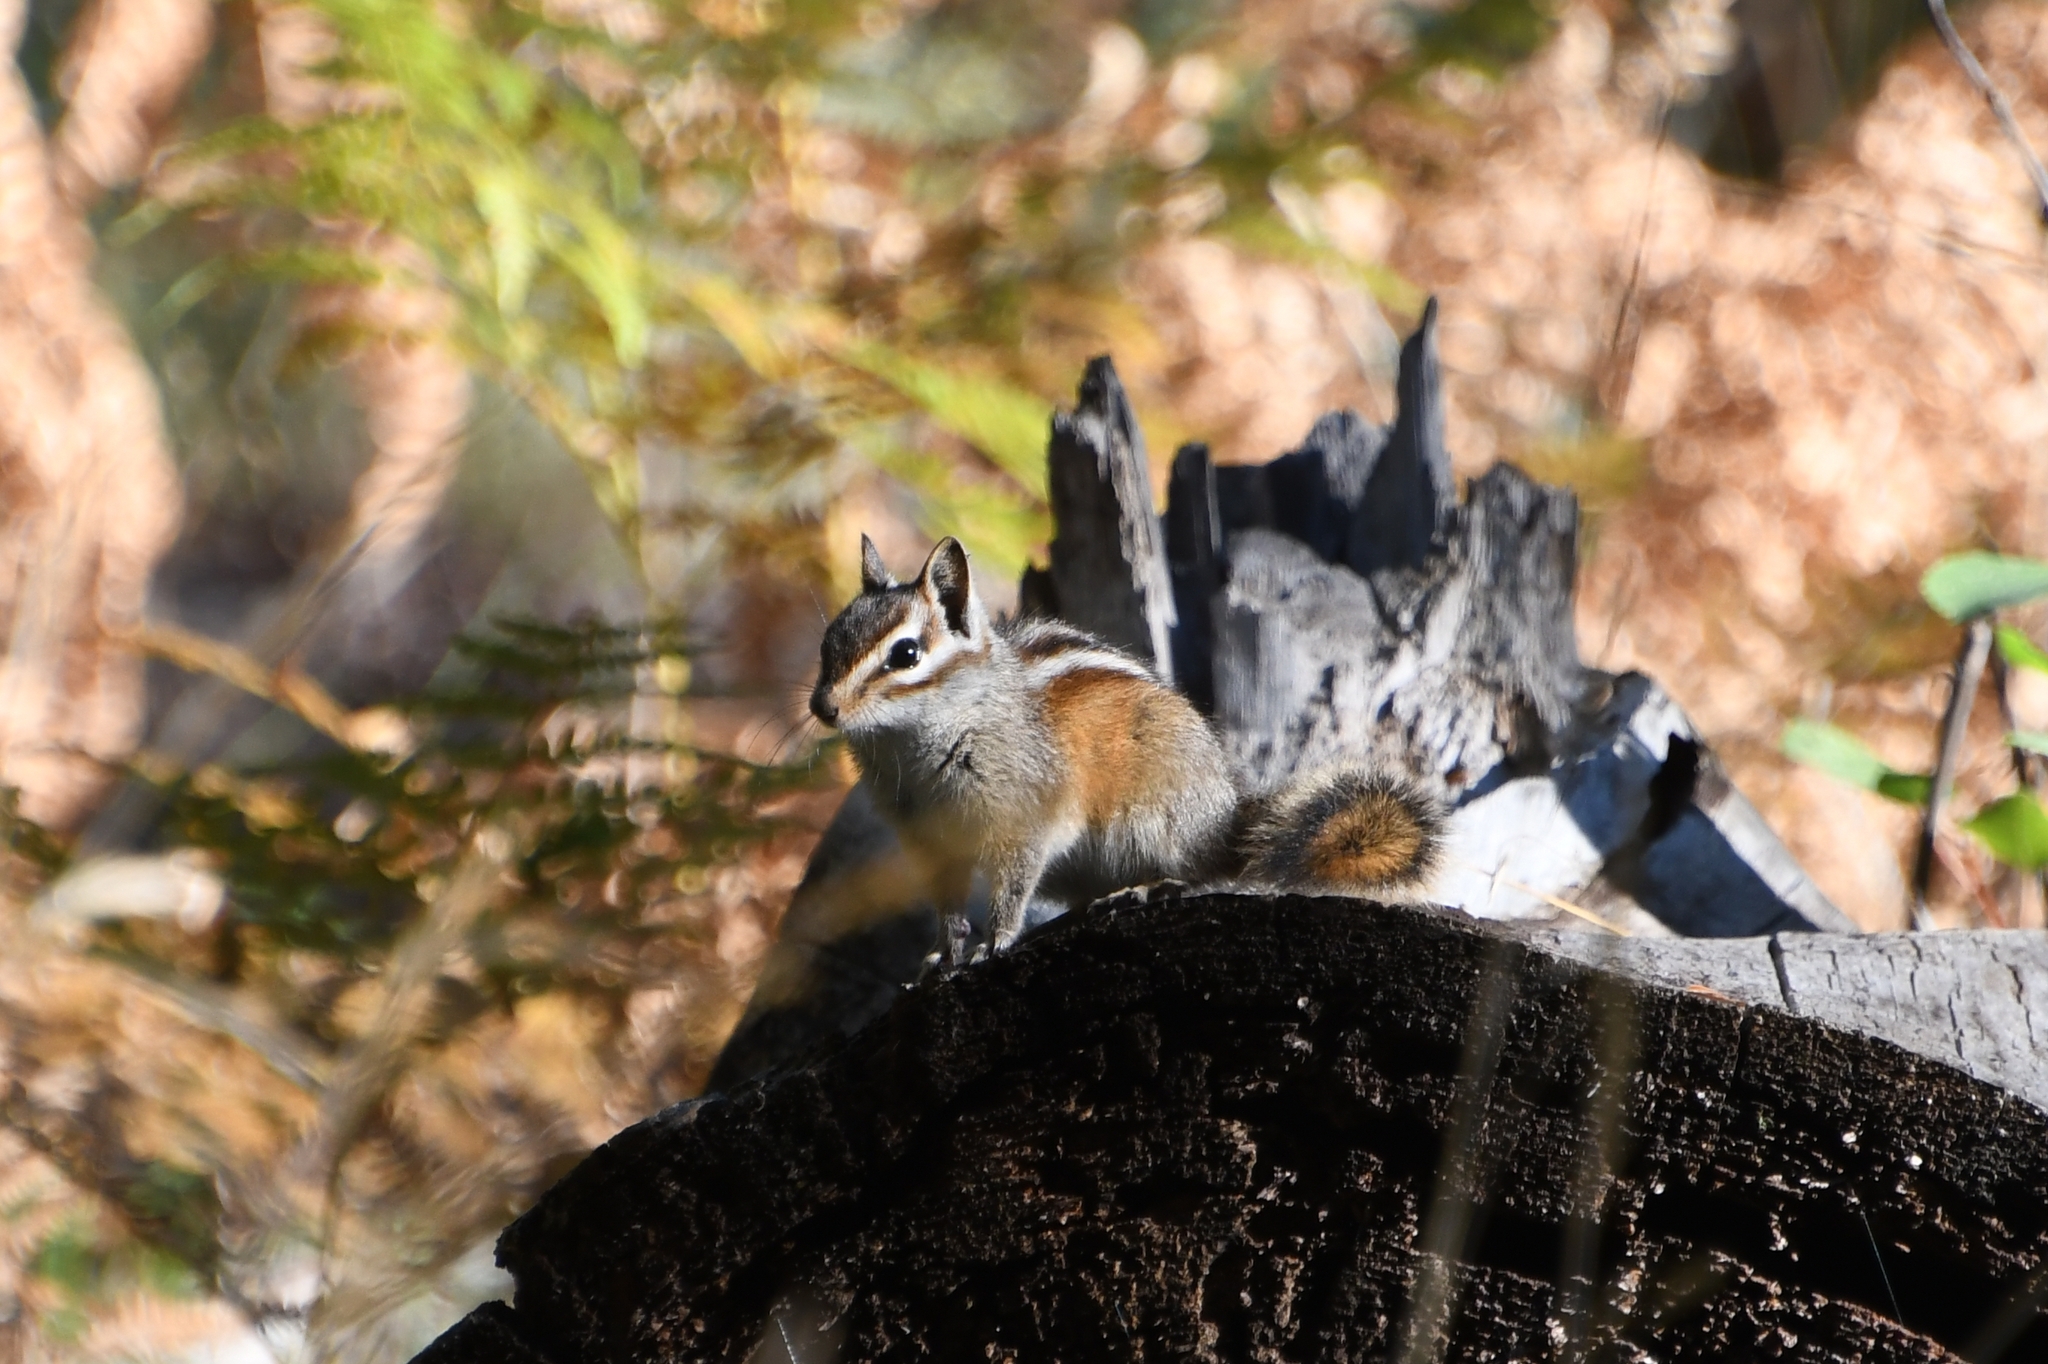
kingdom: Animalia
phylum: Chordata
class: Mammalia
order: Rodentia
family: Sciuridae
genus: Tamias
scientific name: Tamias cinereicollis
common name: Gray-collared chipmunk
